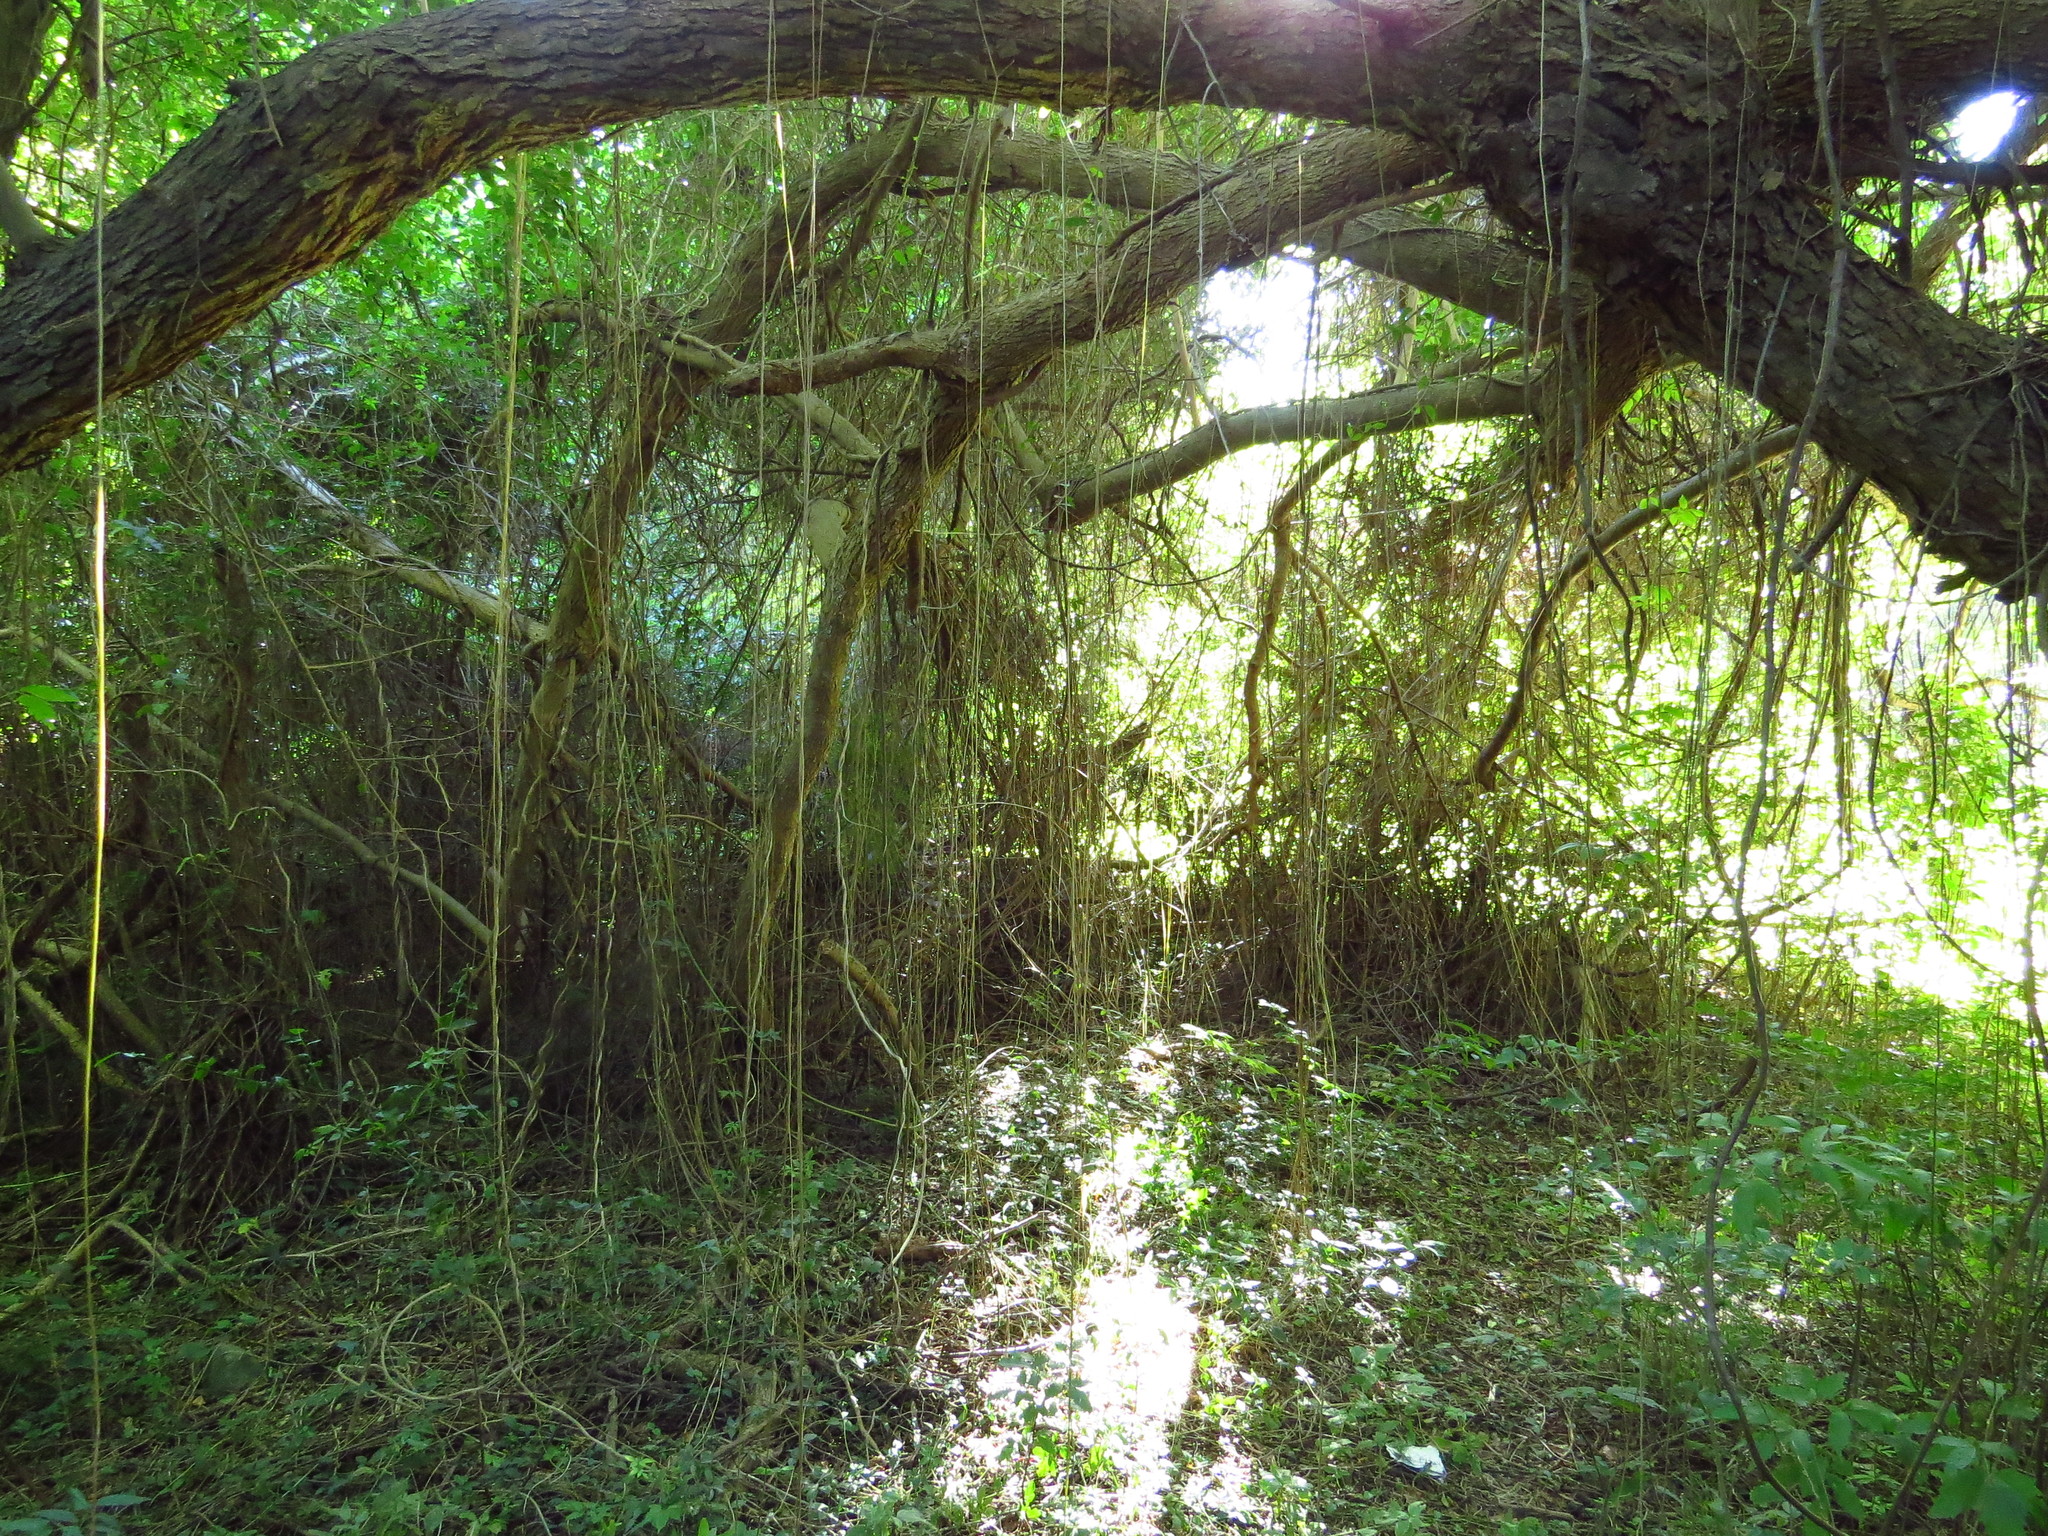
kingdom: Plantae
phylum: Tracheophyta
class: Magnoliopsida
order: Vitales
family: Vitaceae
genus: Cissus
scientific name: Cissus verticillata
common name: Princess vine
